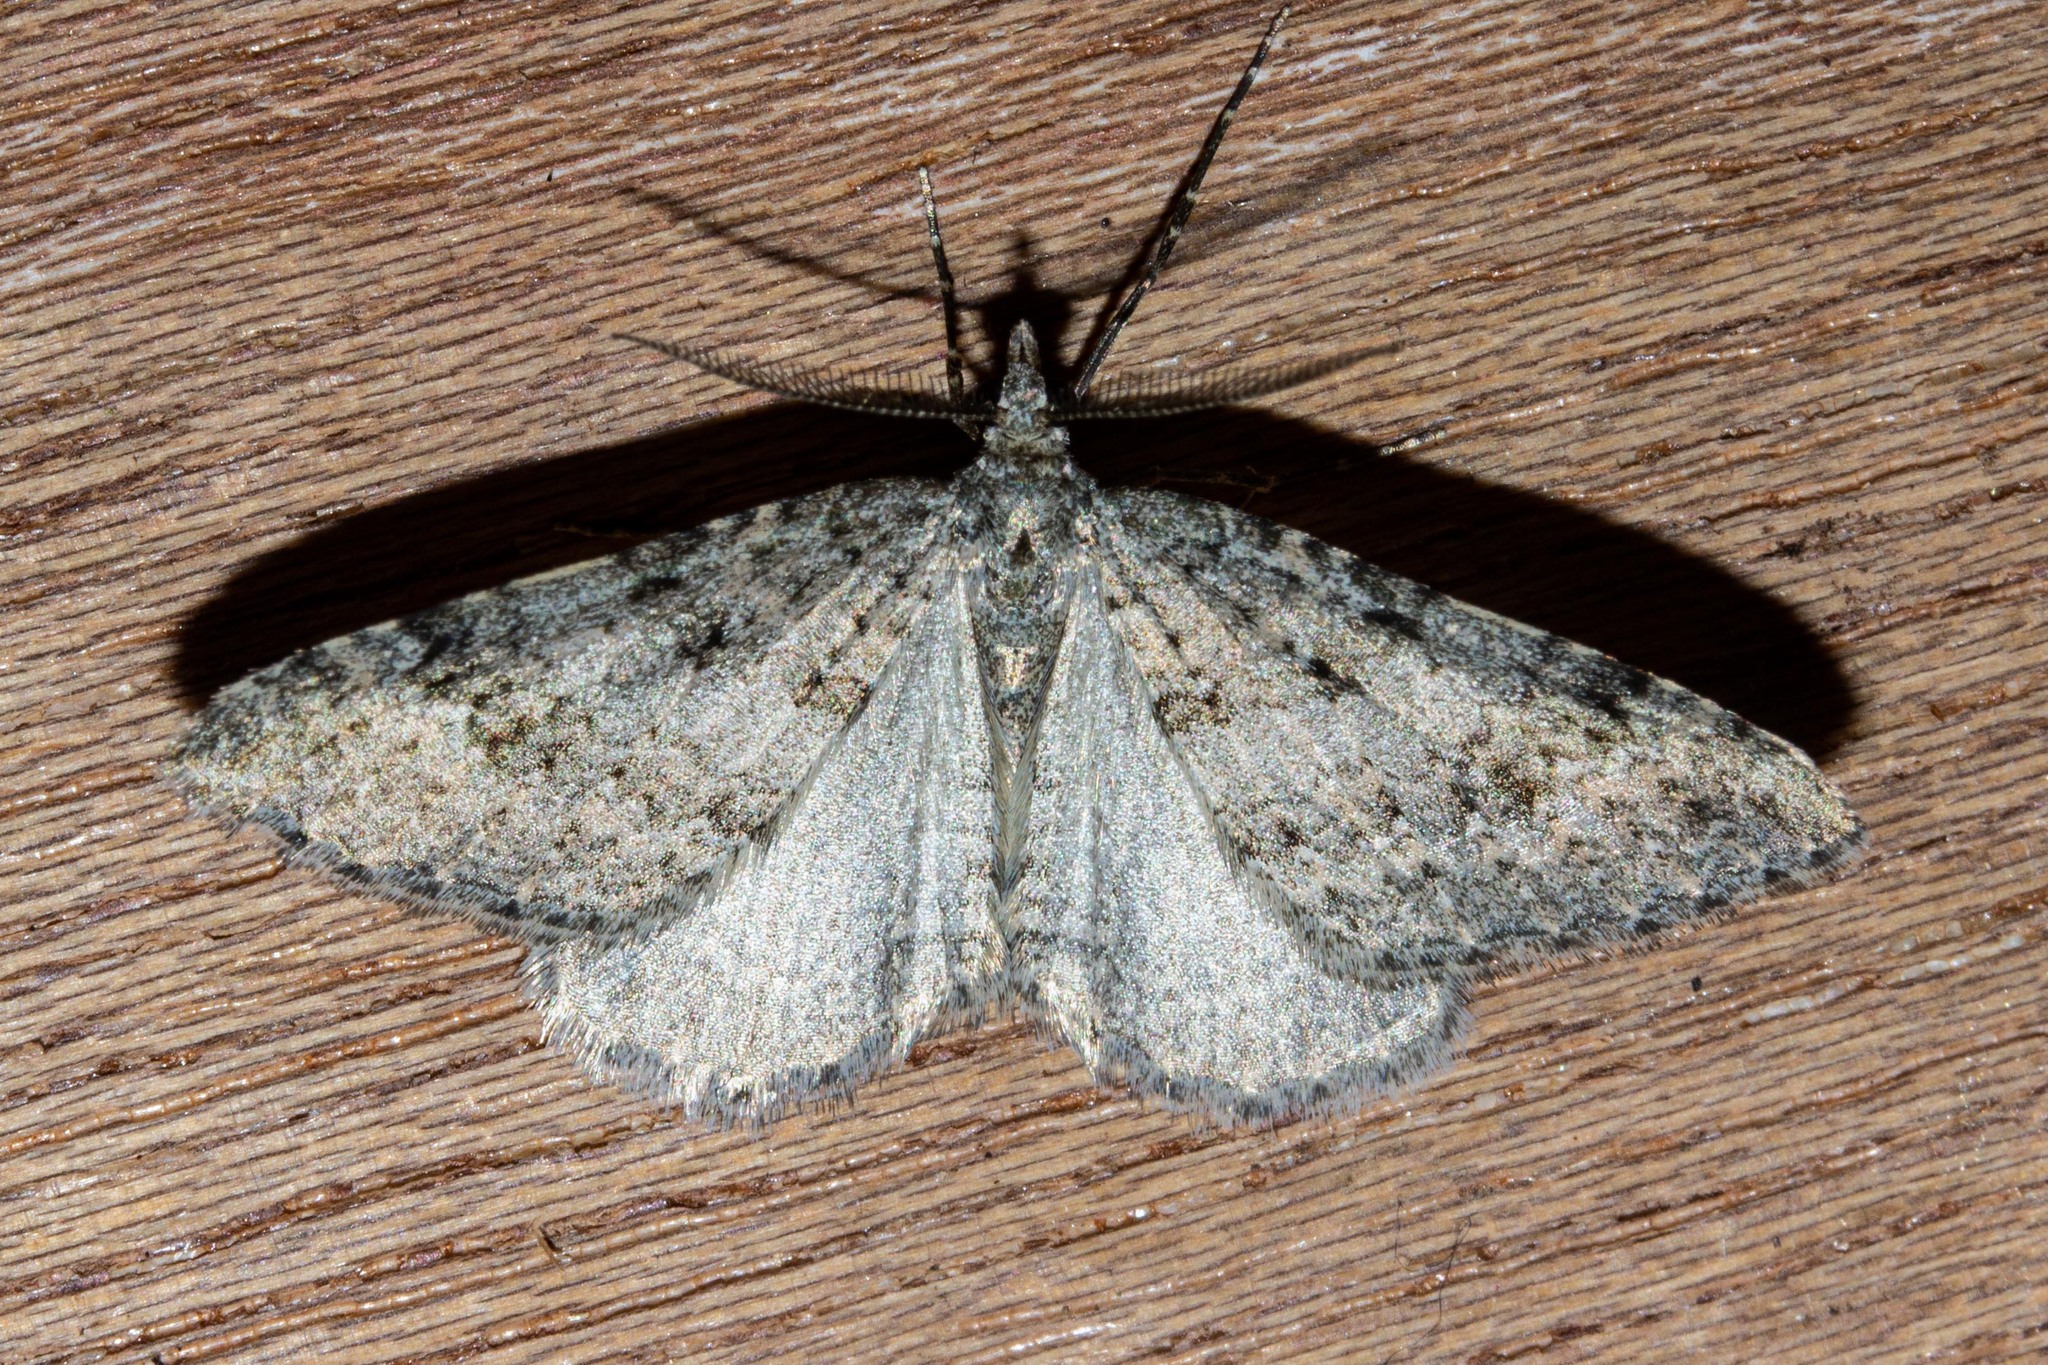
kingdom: Animalia
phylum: Arthropoda
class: Insecta
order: Lepidoptera
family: Geometridae
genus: Helastia
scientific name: Helastia corcularia
